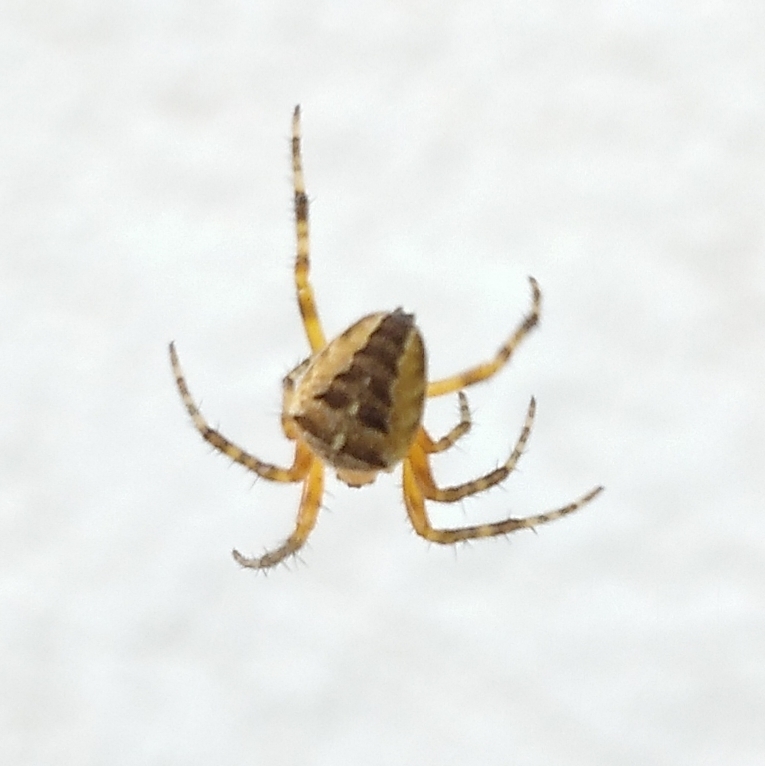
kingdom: Animalia
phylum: Arthropoda
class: Arachnida
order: Araneae
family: Araneidae
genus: Araneus
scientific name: Araneus diadematus
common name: Cross orbweaver
